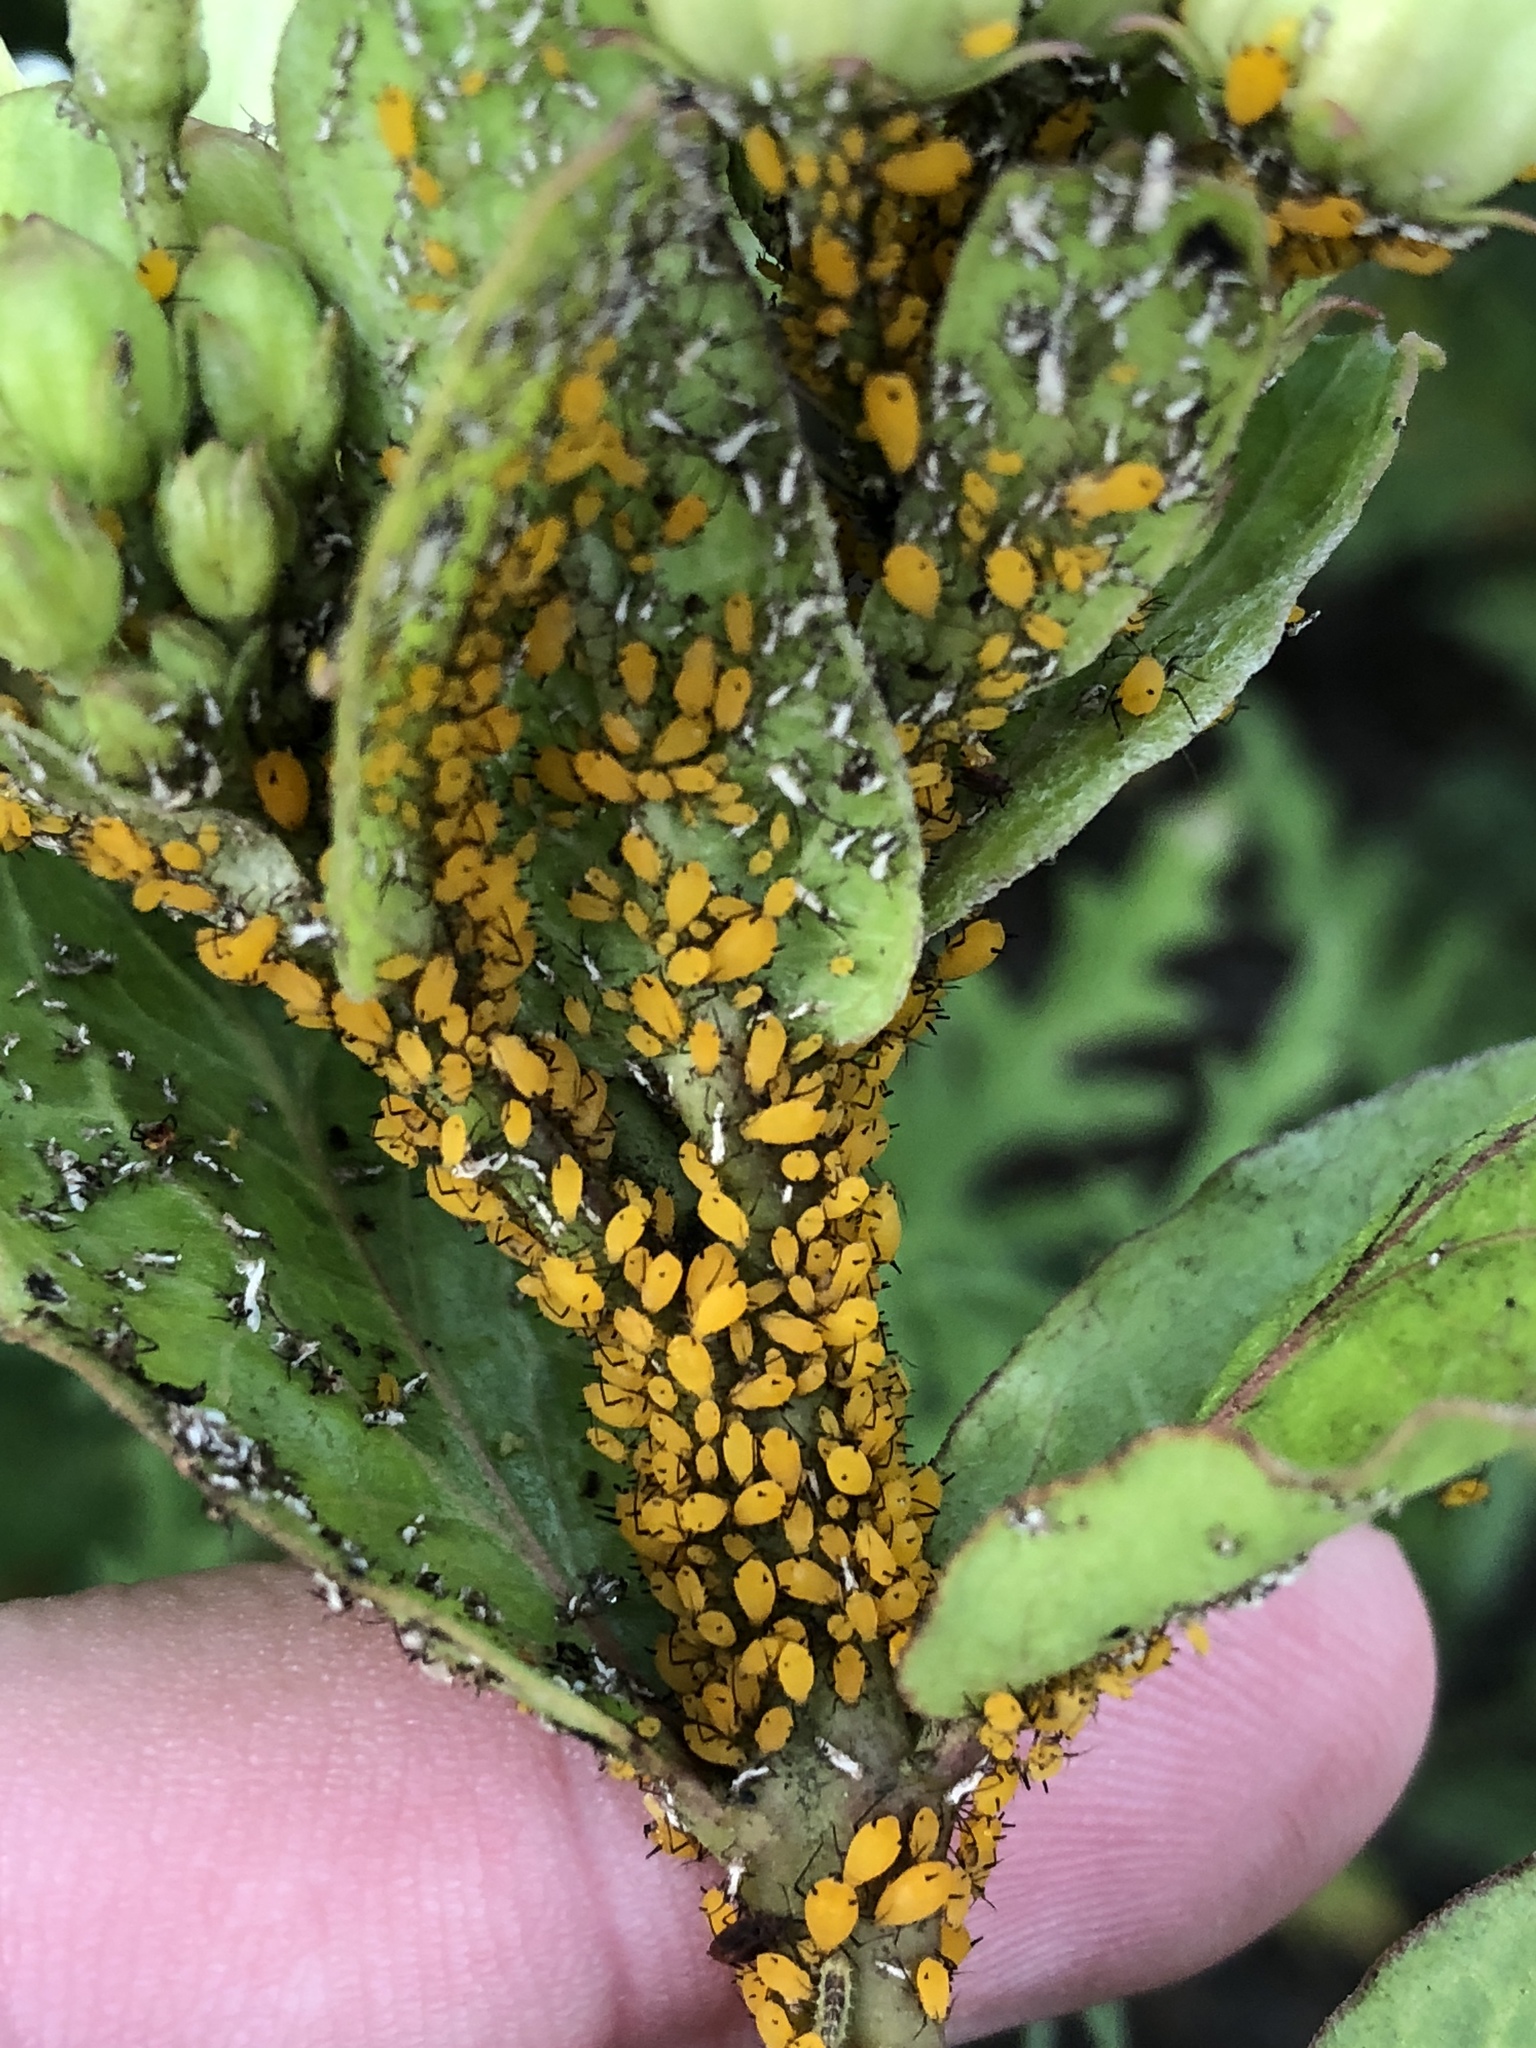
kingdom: Animalia
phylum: Arthropoda
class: Insecta
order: Hemiptera
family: Aphididae
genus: Aphis
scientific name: Aphis nerii
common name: Oleander aphid
